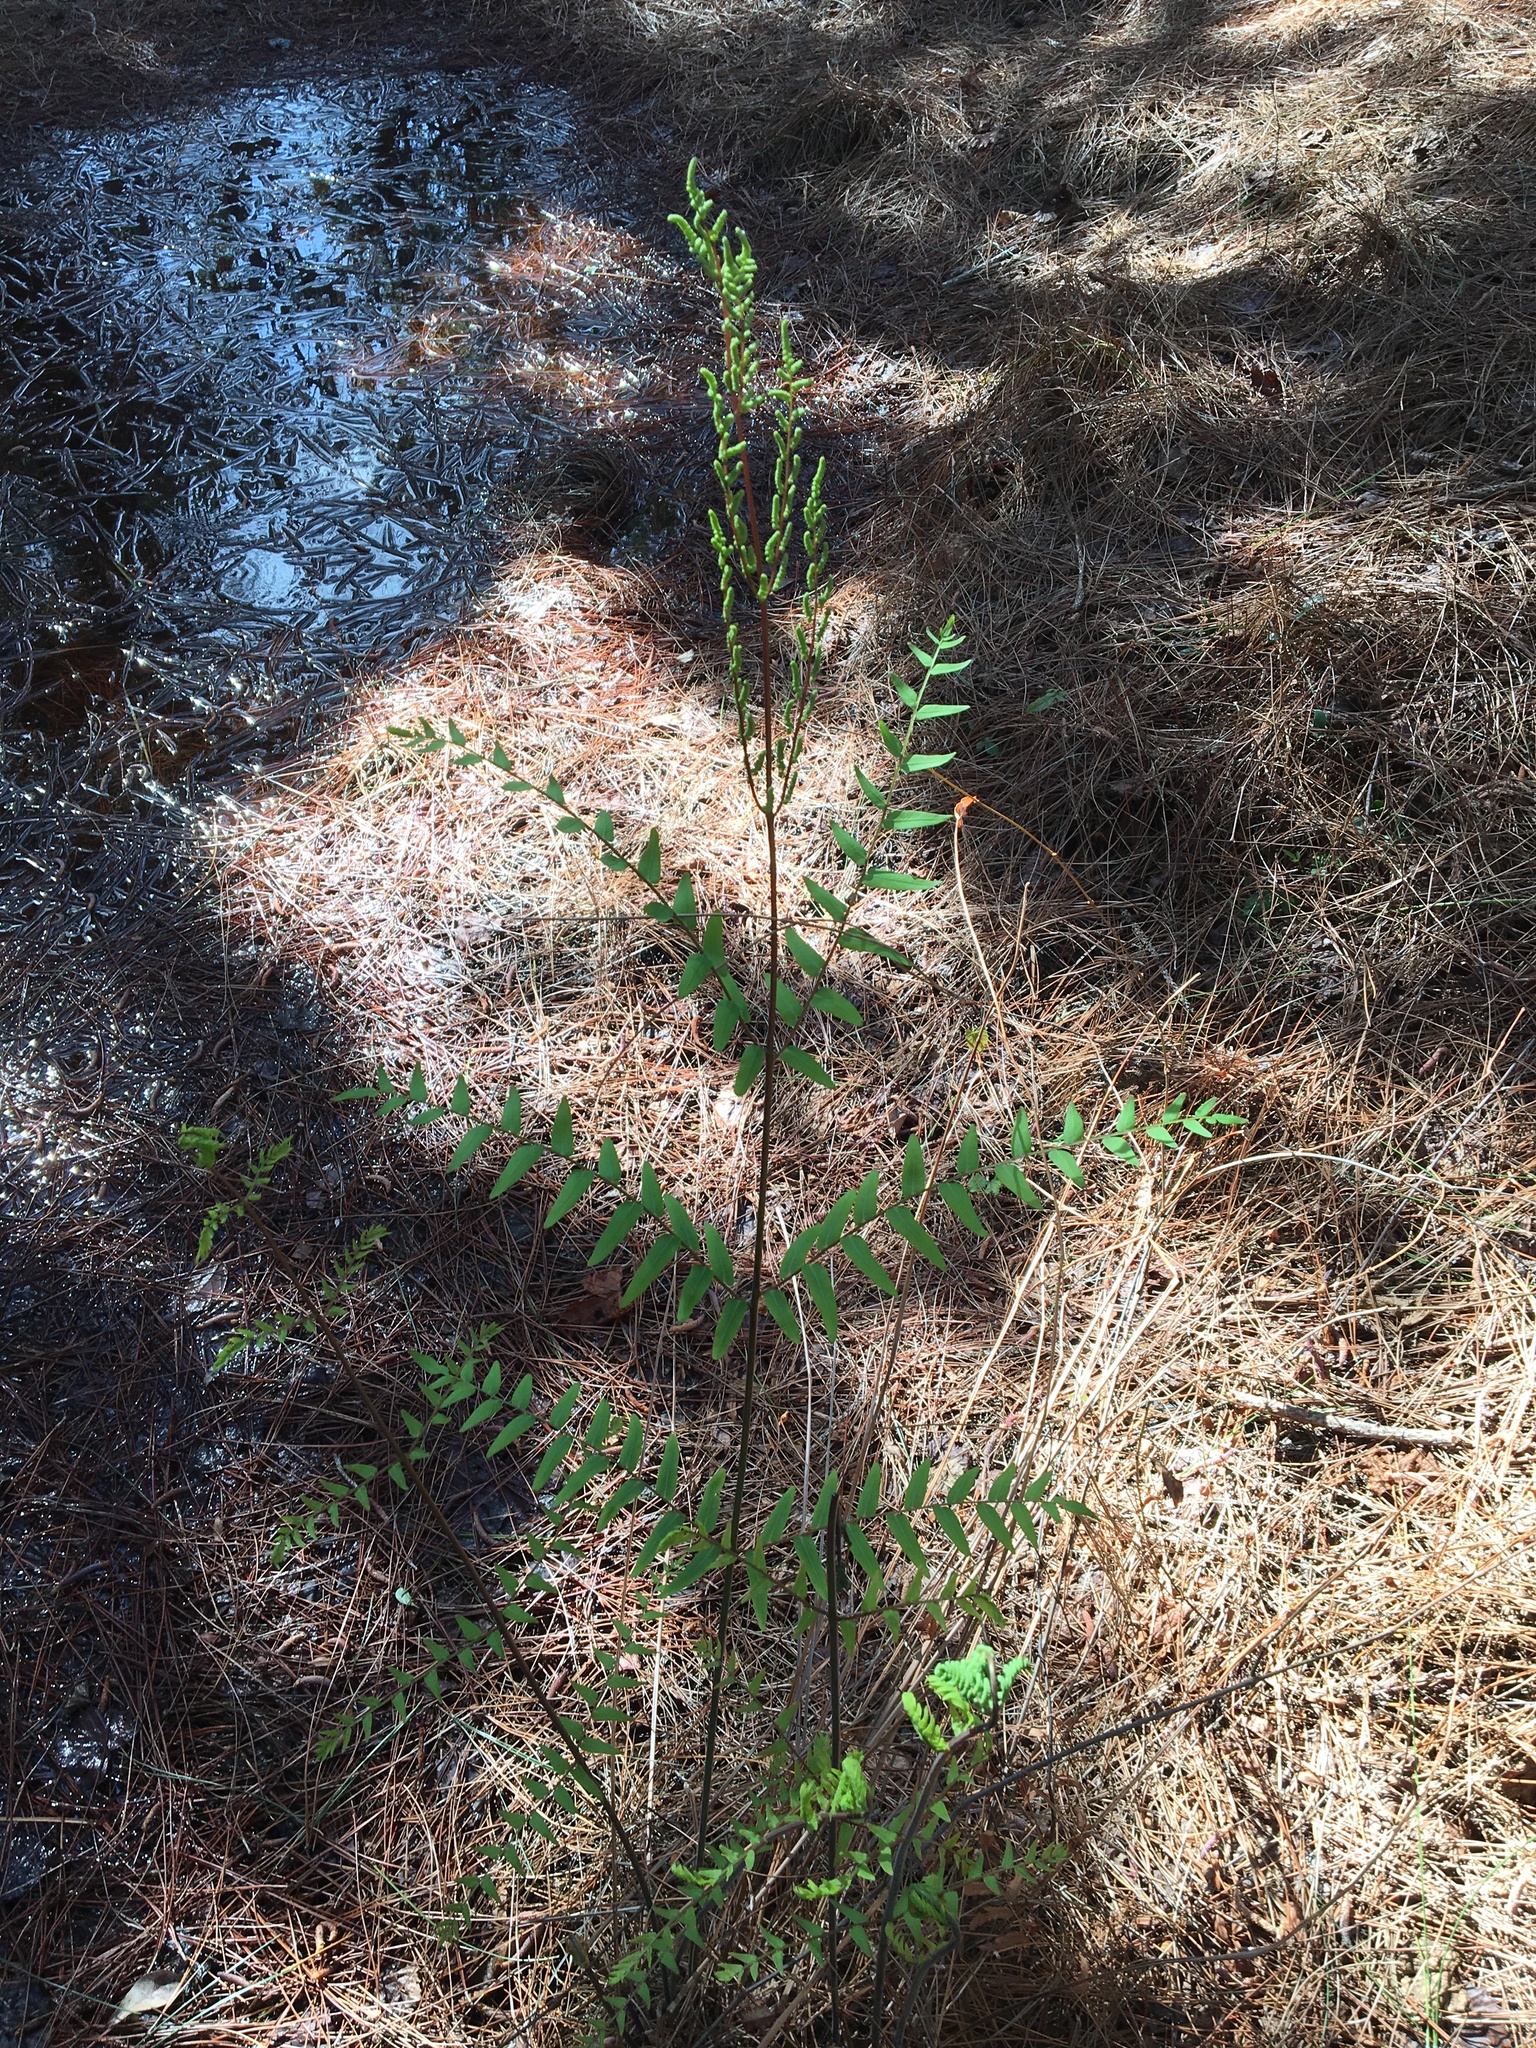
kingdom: Plantae
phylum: Tracheophyta
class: Polypodiopsida
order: Osmundales
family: Osmundaceae
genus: Osmunda
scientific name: Osmunda spectabilis
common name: American royal fern
